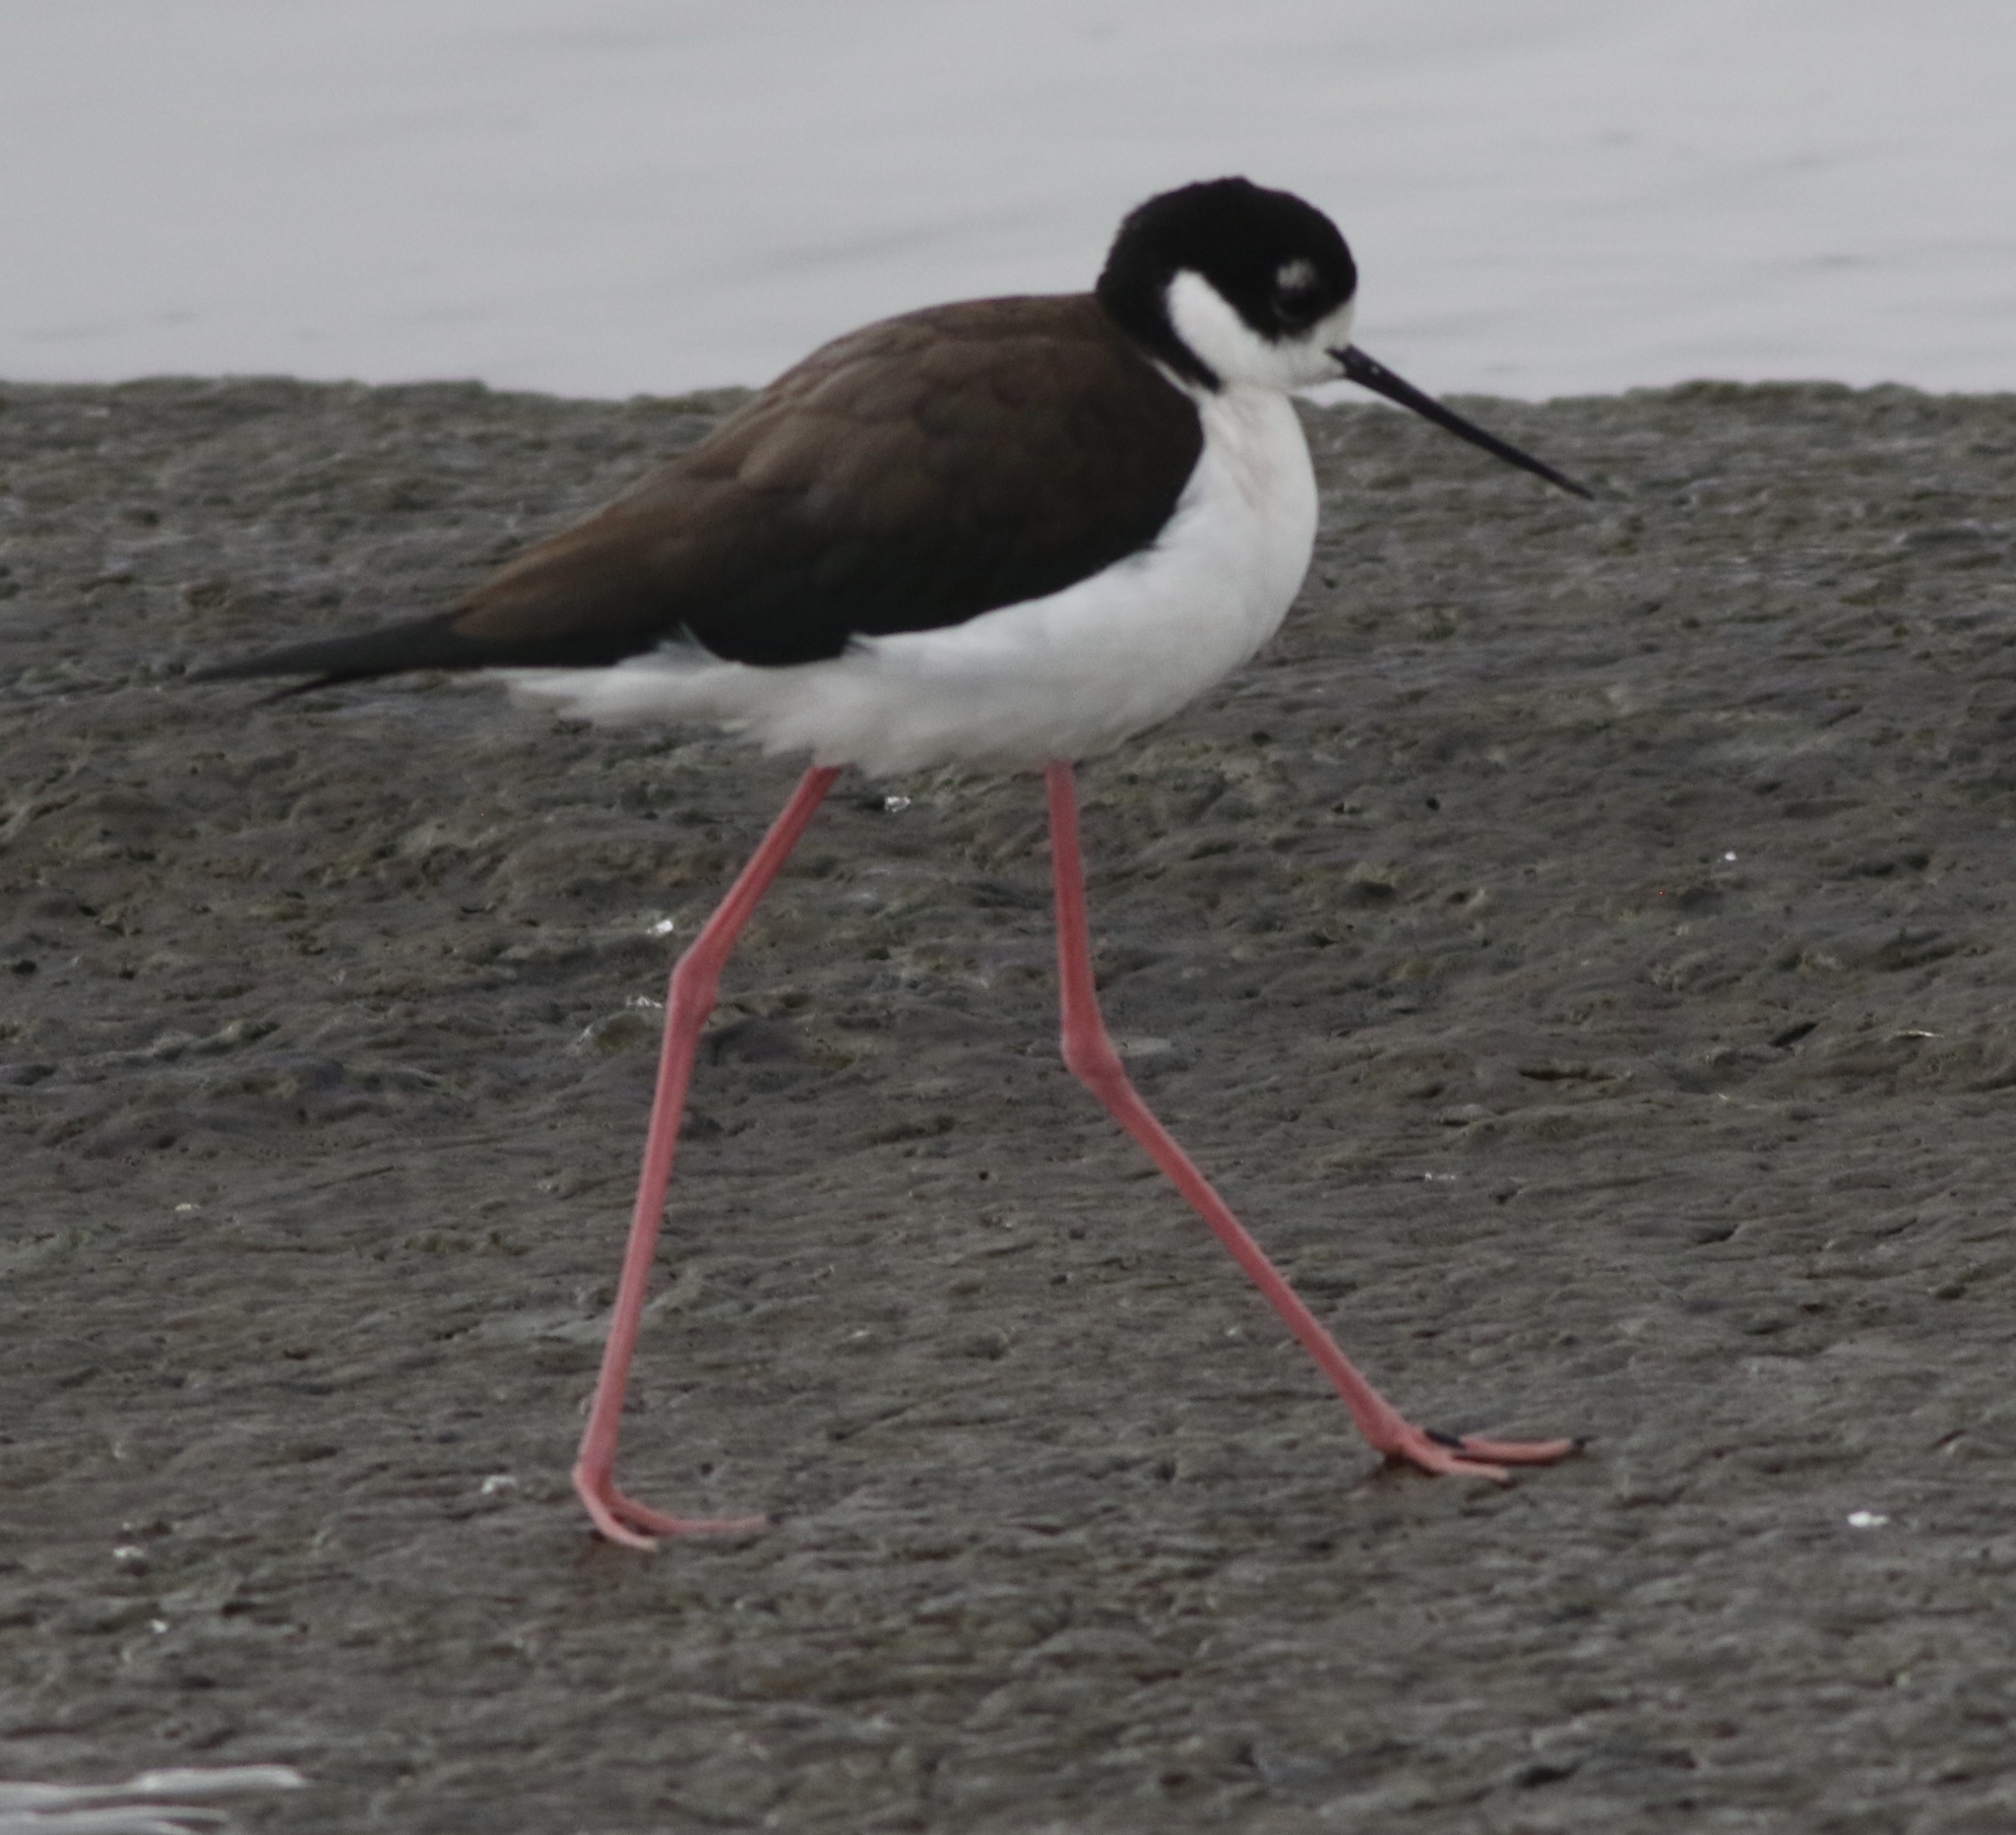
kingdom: Animalia
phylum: Chordata
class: Aves
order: Charadriiformes
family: Recurvirostridae
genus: Himantopus
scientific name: Himantopus mexicanus
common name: Black-necked stilt
